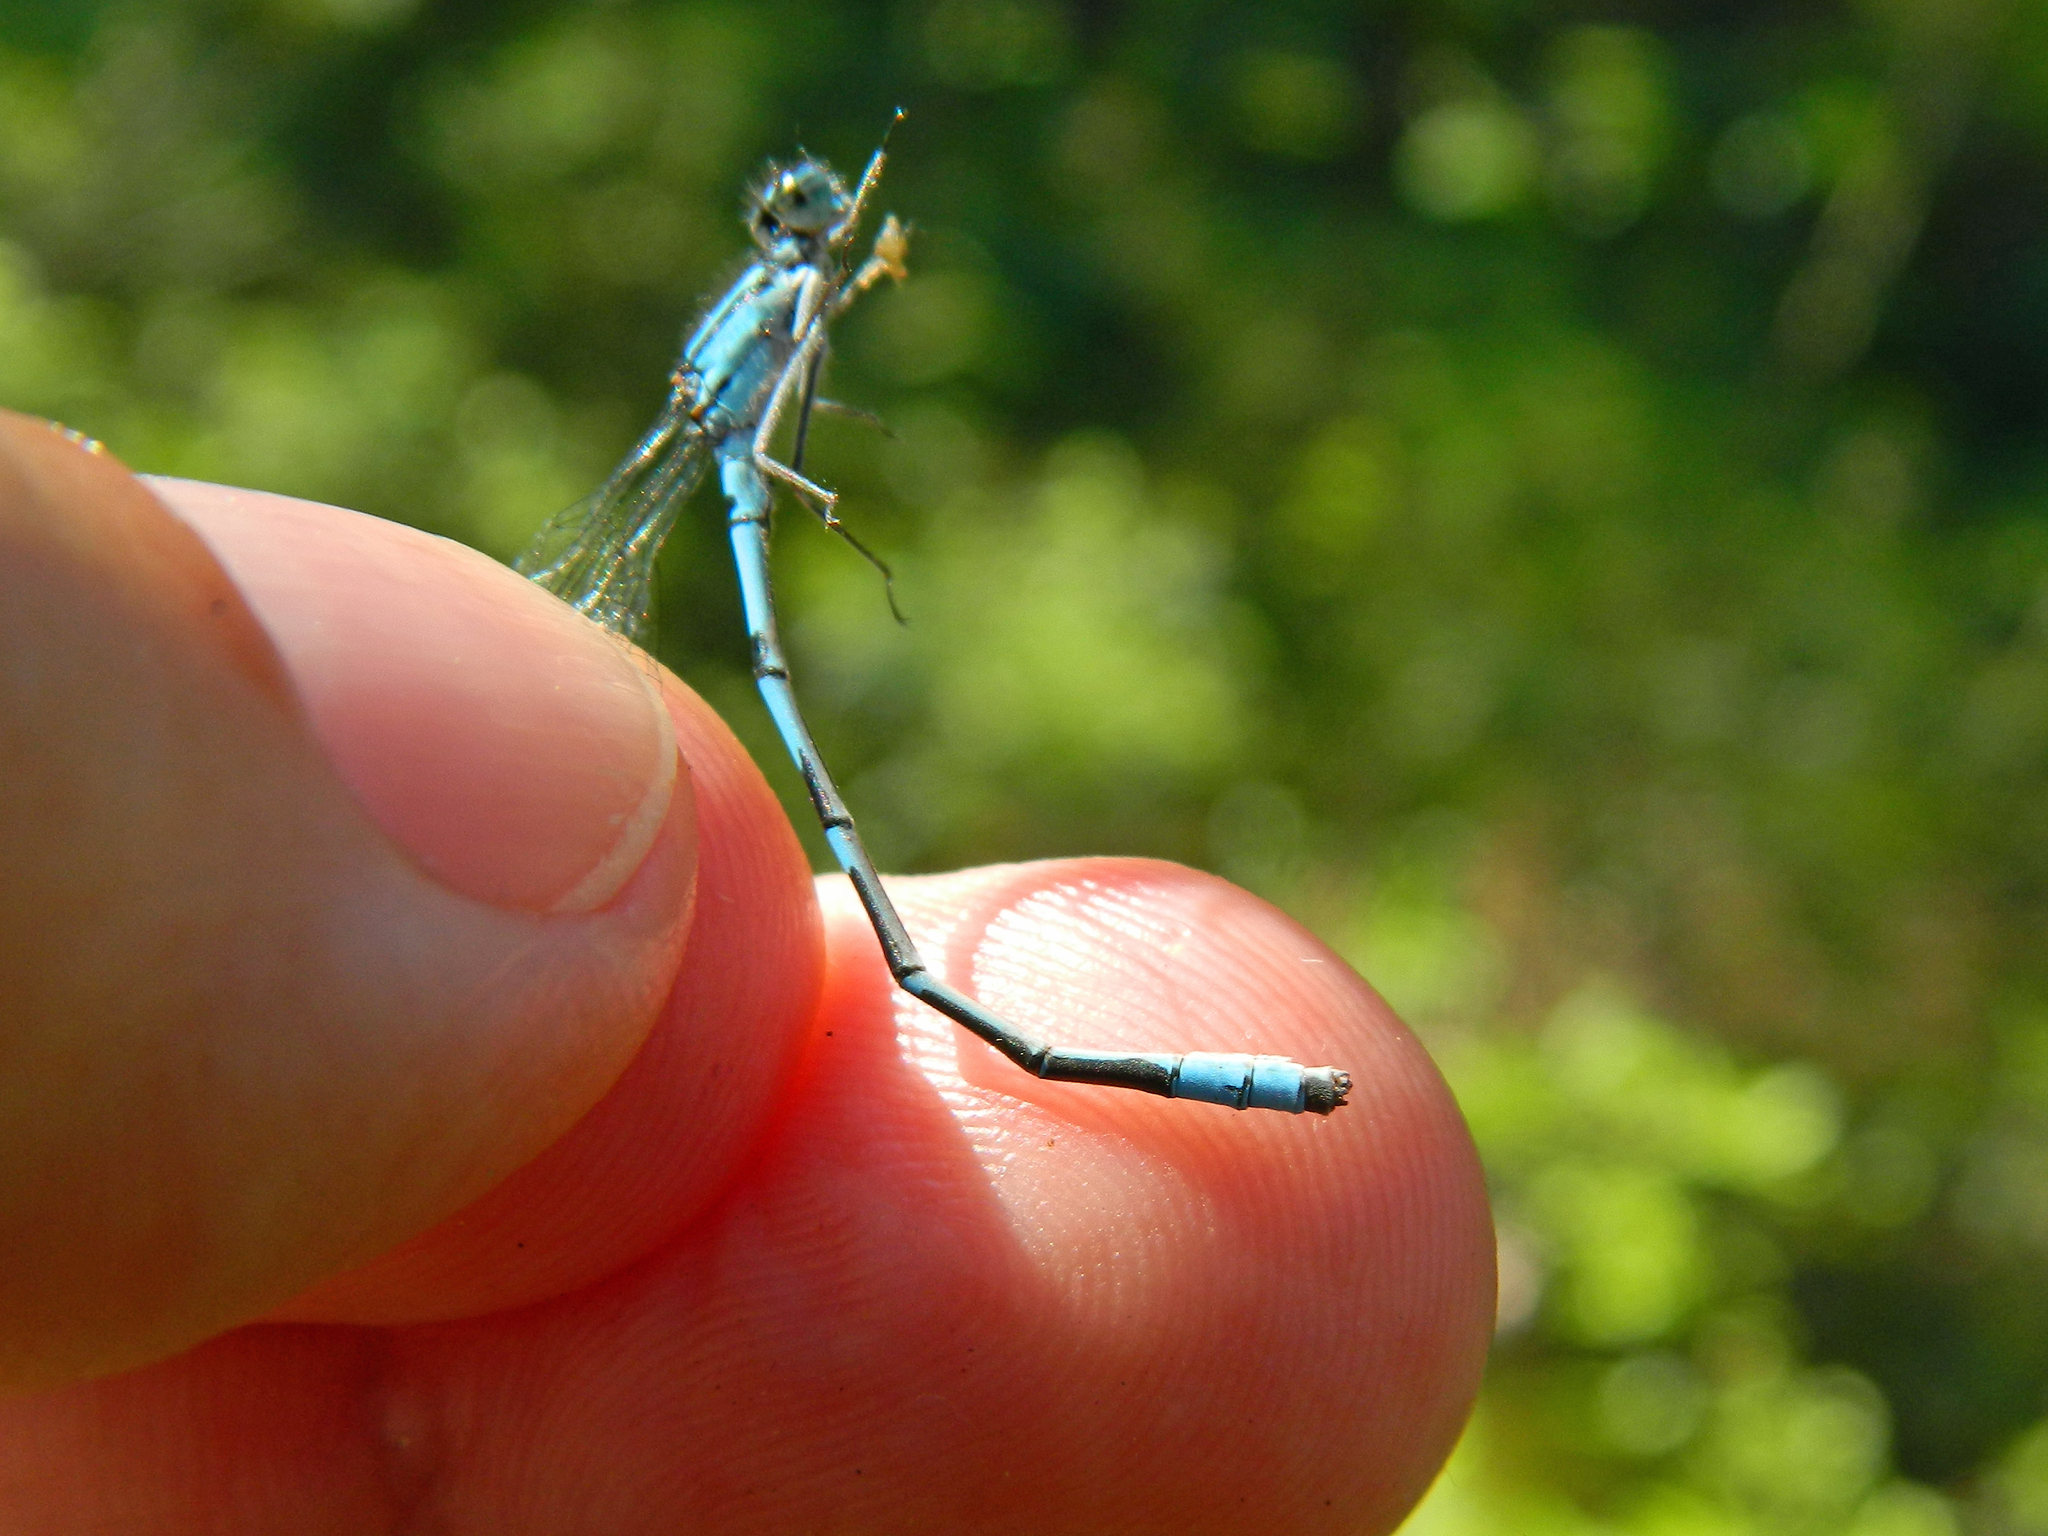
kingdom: Animalia
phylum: Arthropoda
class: Insecta
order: Odonata
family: Coenagrionidae
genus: Enallagma
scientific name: Enallagma ebrium
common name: Marsh bluet
